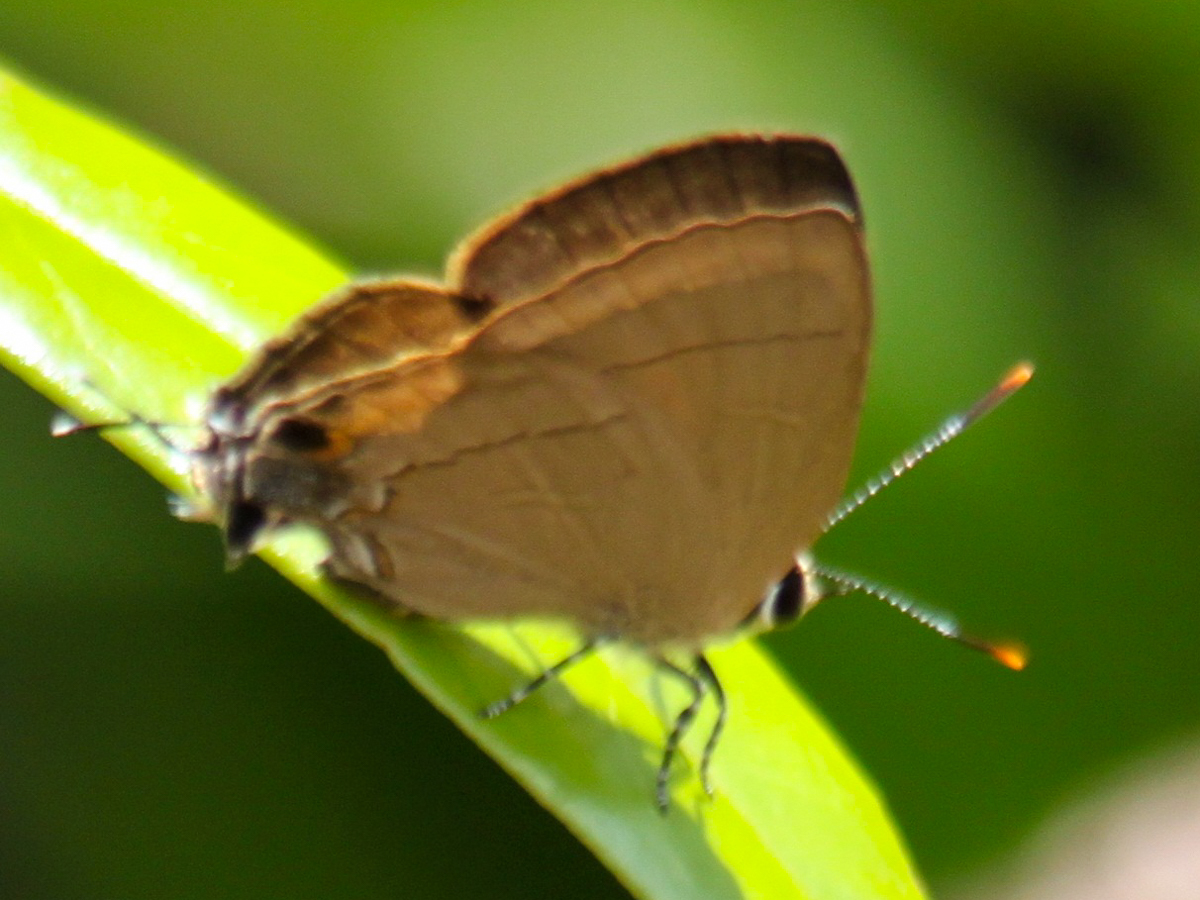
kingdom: Animalia
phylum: Arthropoda
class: Insecta
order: Lepidoptera
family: Lycaenidae
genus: Rapala
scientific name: Rapala dieneces
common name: Scarlet flash
